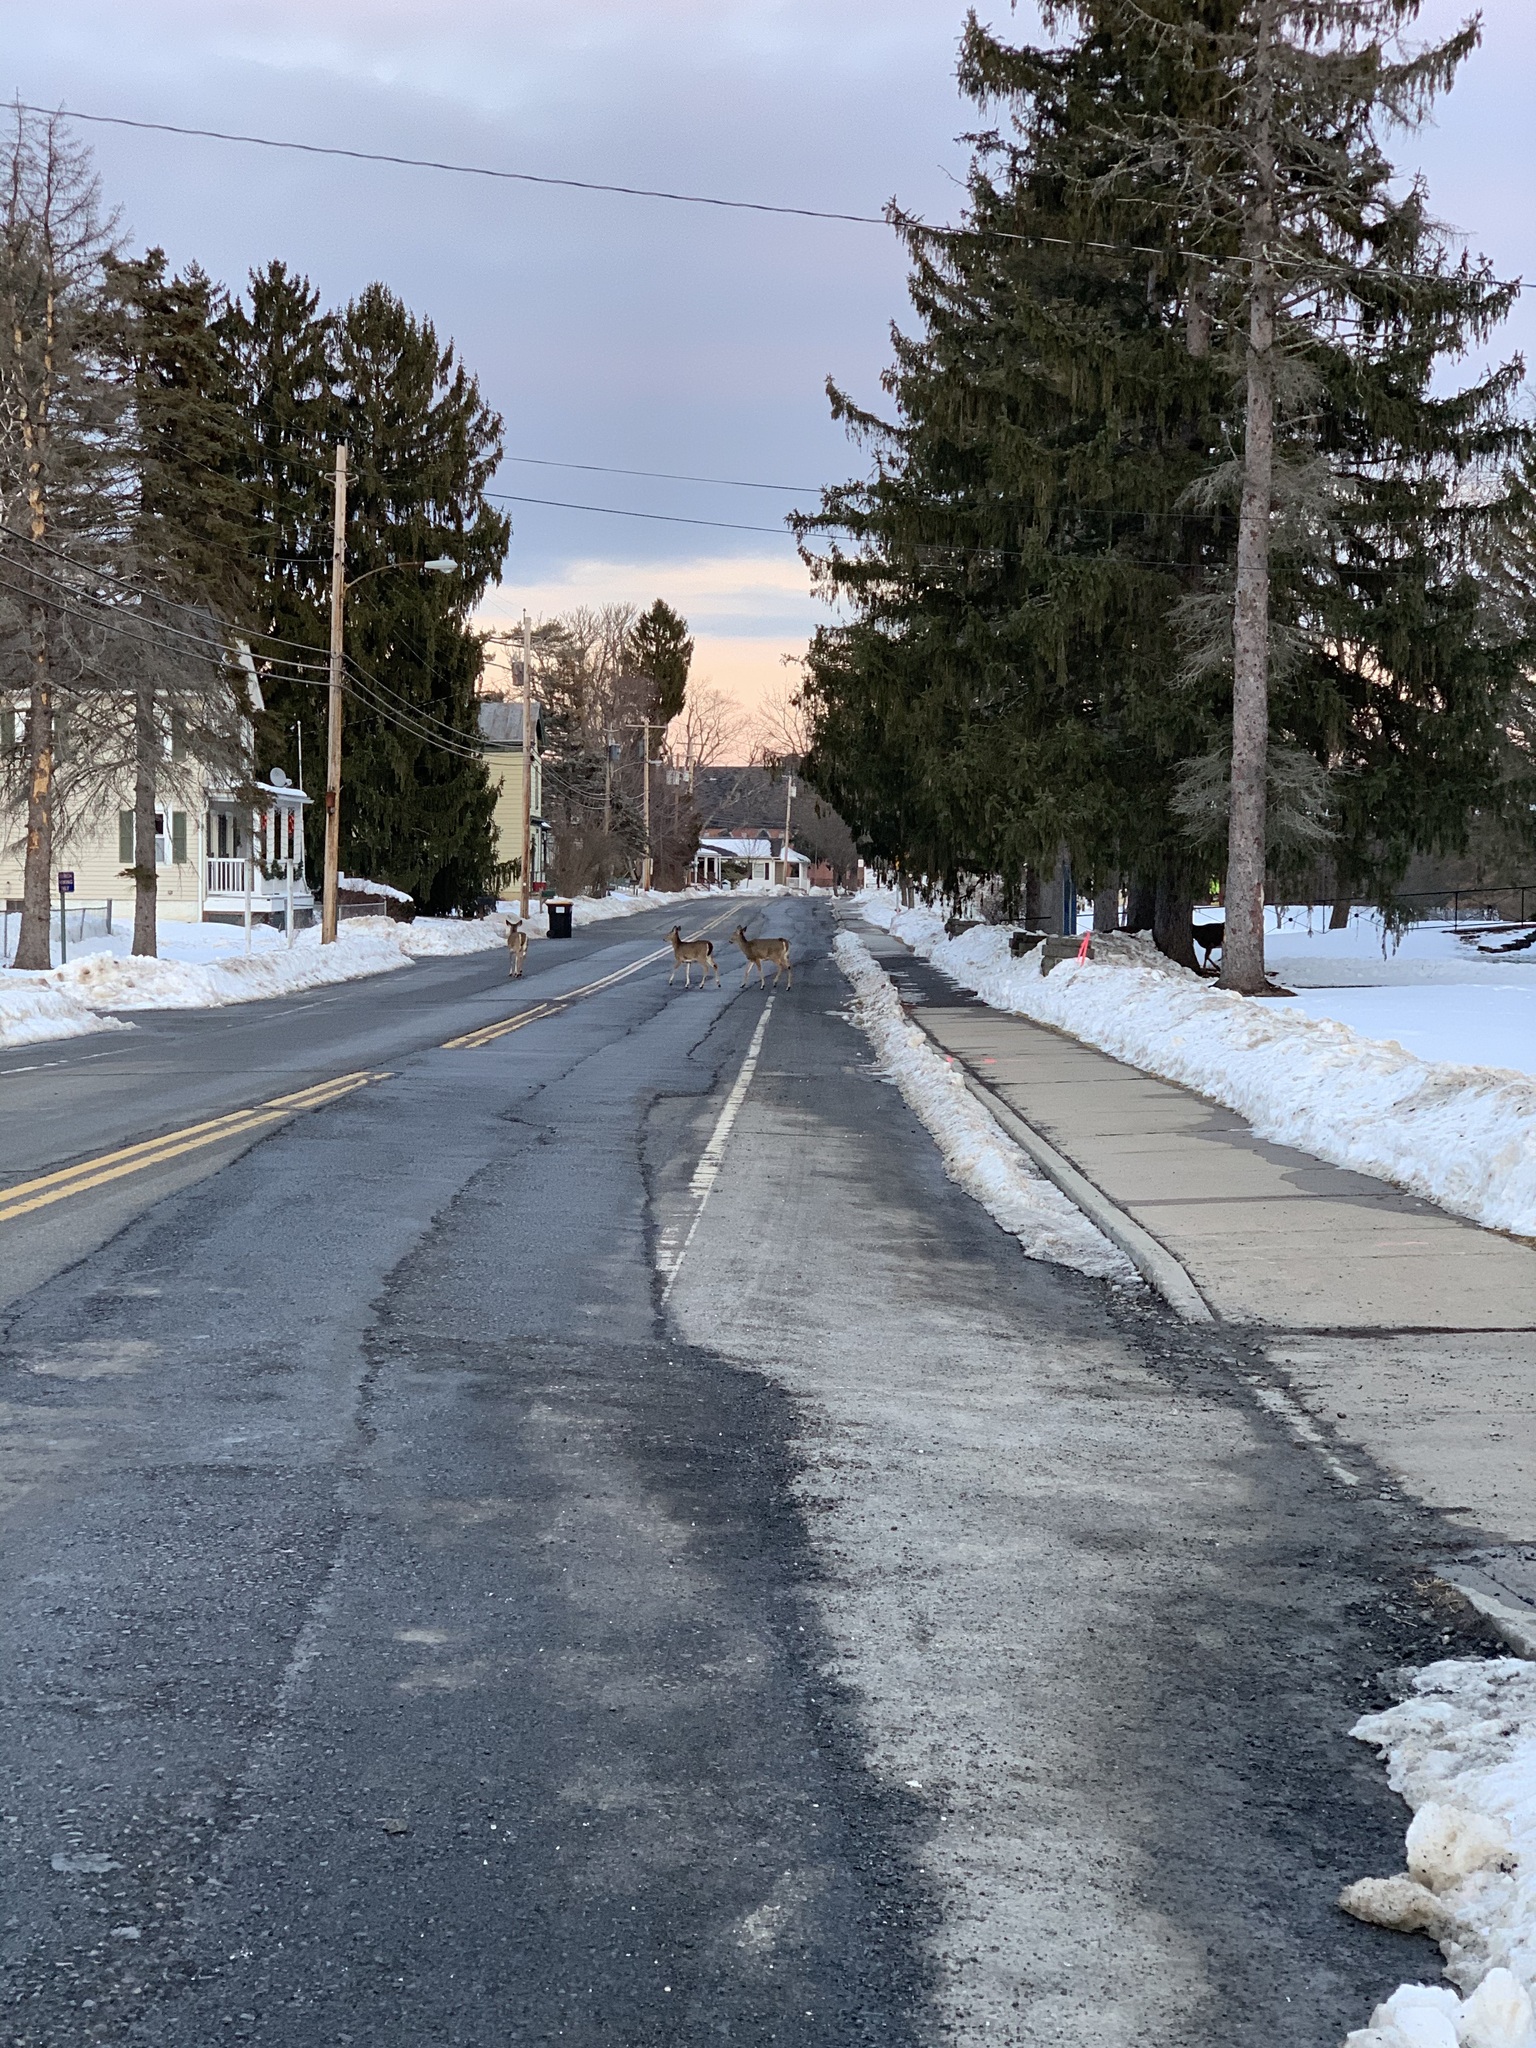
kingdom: Animalia
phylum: Chordata
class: Mammalia
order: Artiodactyla
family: Cervidae
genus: Odocoileus
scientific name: Odocoileus virginianus
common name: White-tailed deer
